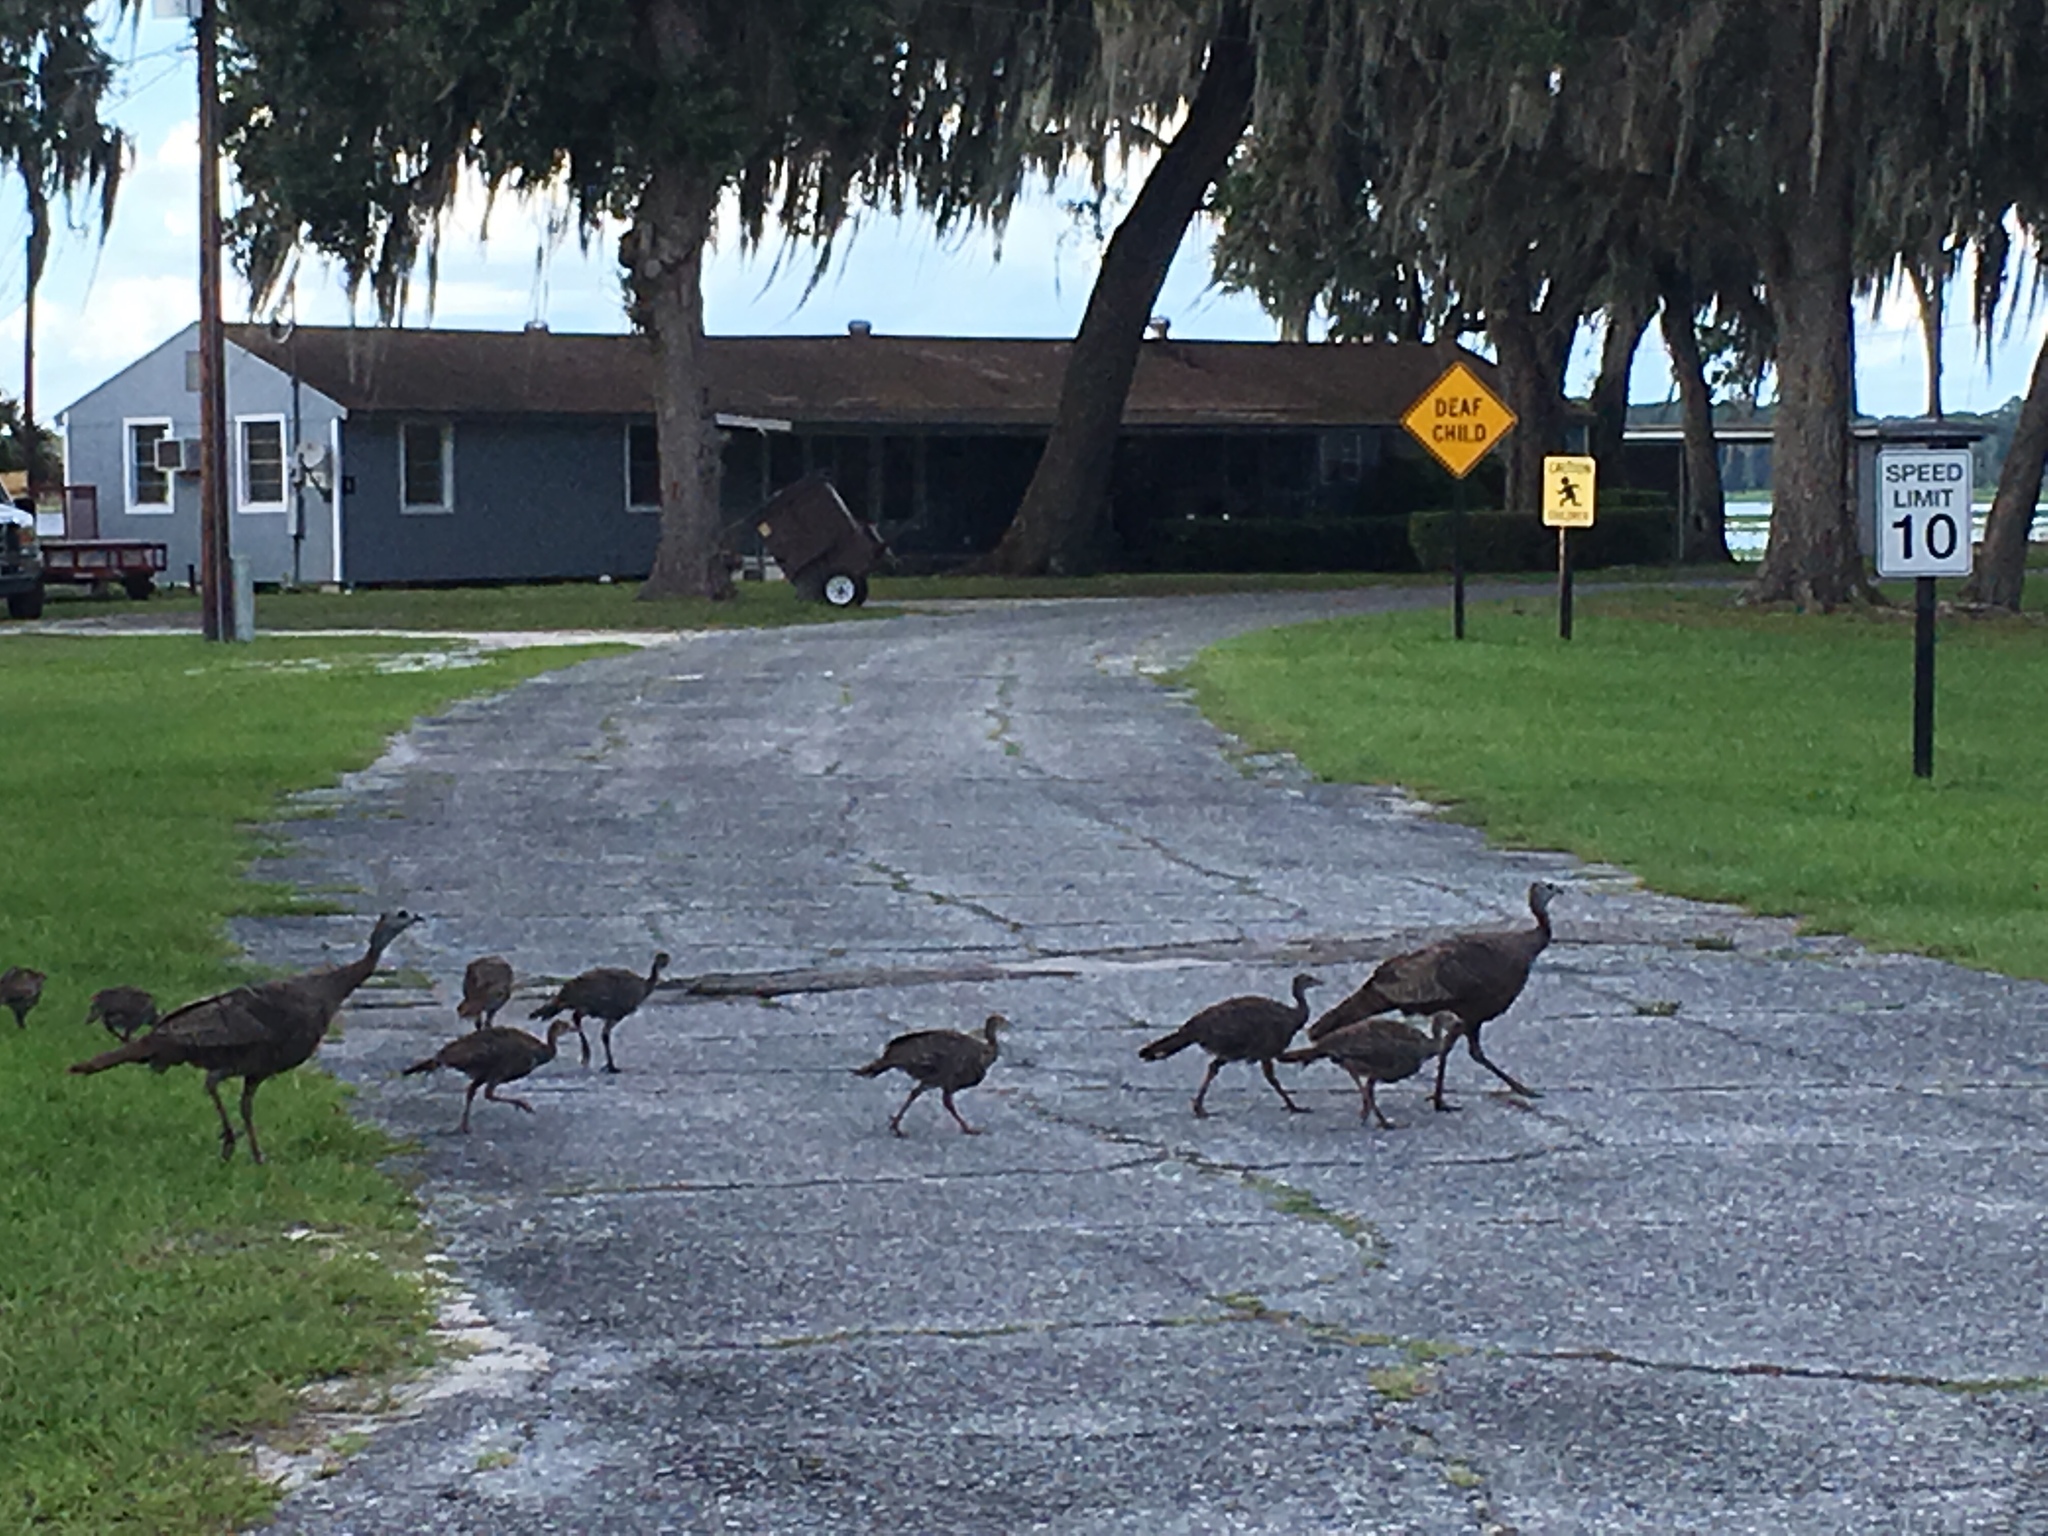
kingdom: Animalia
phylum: Chordata
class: Aves
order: Galliformes
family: Phasianidae
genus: Meleagris
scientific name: Meleagris gallopavo
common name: Wild turkey
